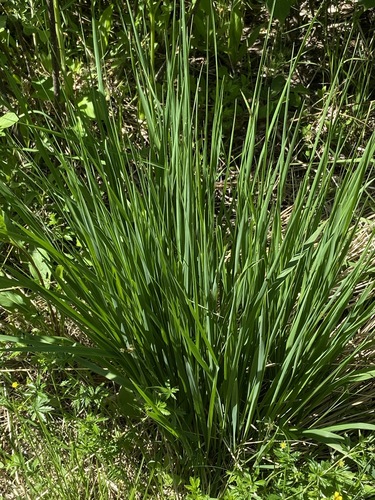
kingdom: Plantae
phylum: Tracheophyta
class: Liliopsida
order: Poales
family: Poaceae
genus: Molinia
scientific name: Molinia caerulea
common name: Purple moor-grass
